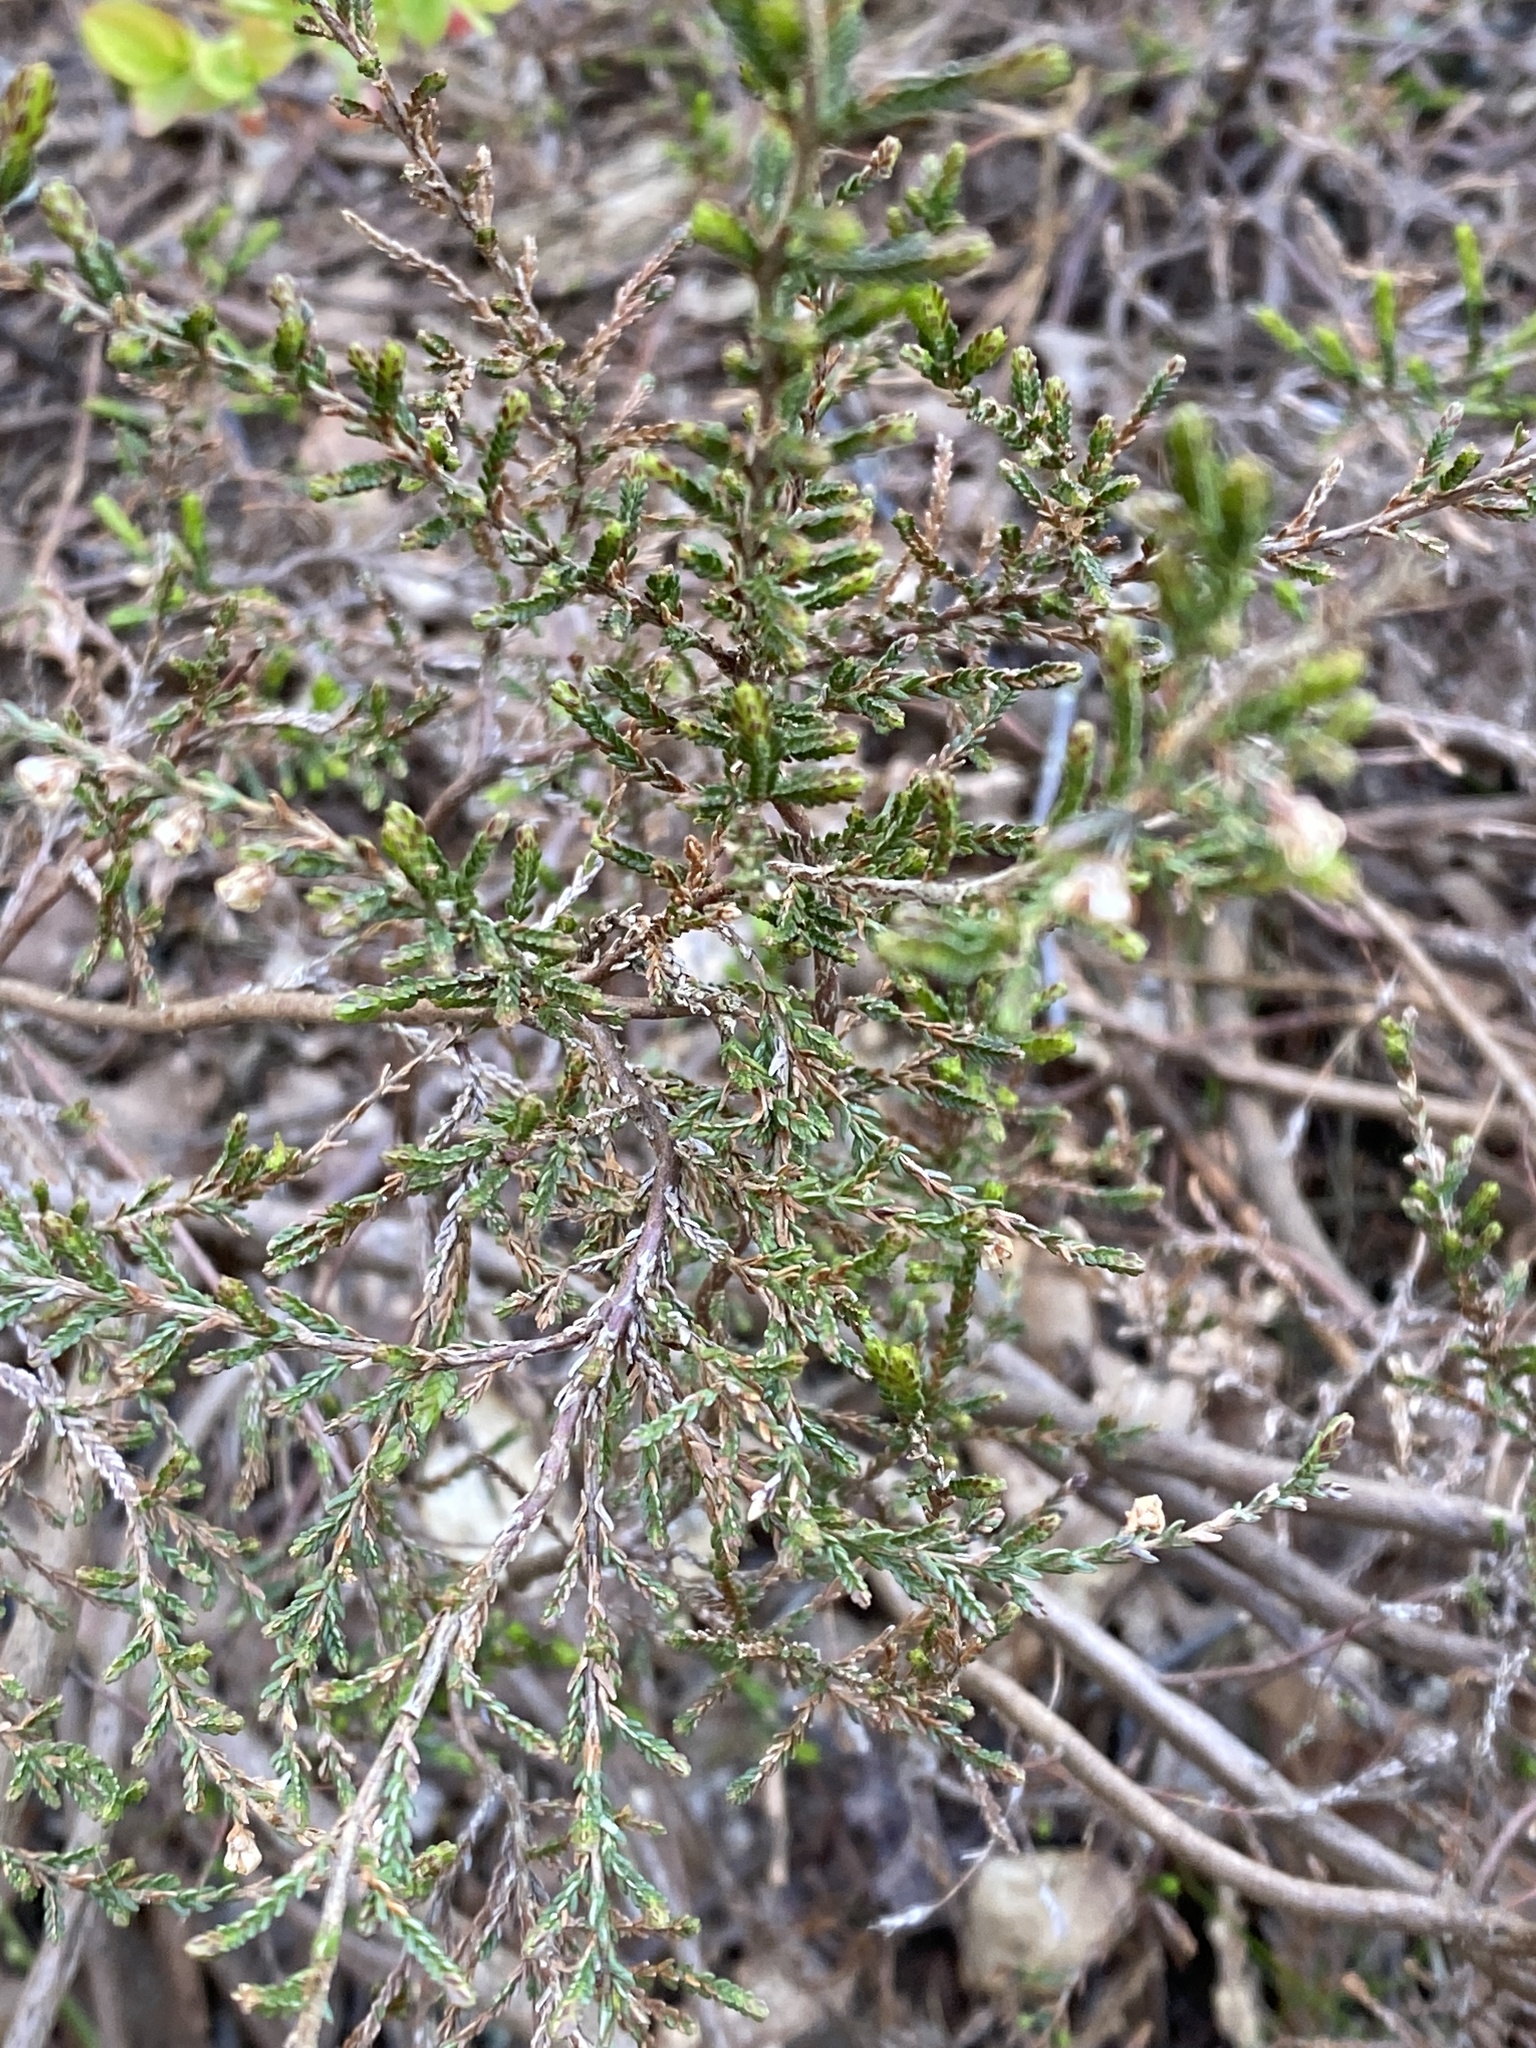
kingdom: Plantae
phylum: Tracheophyta
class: Magnoliopsida
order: Ericales
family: Ericaceae
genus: Calluna
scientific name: Calluna vulgaris
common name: Heather
